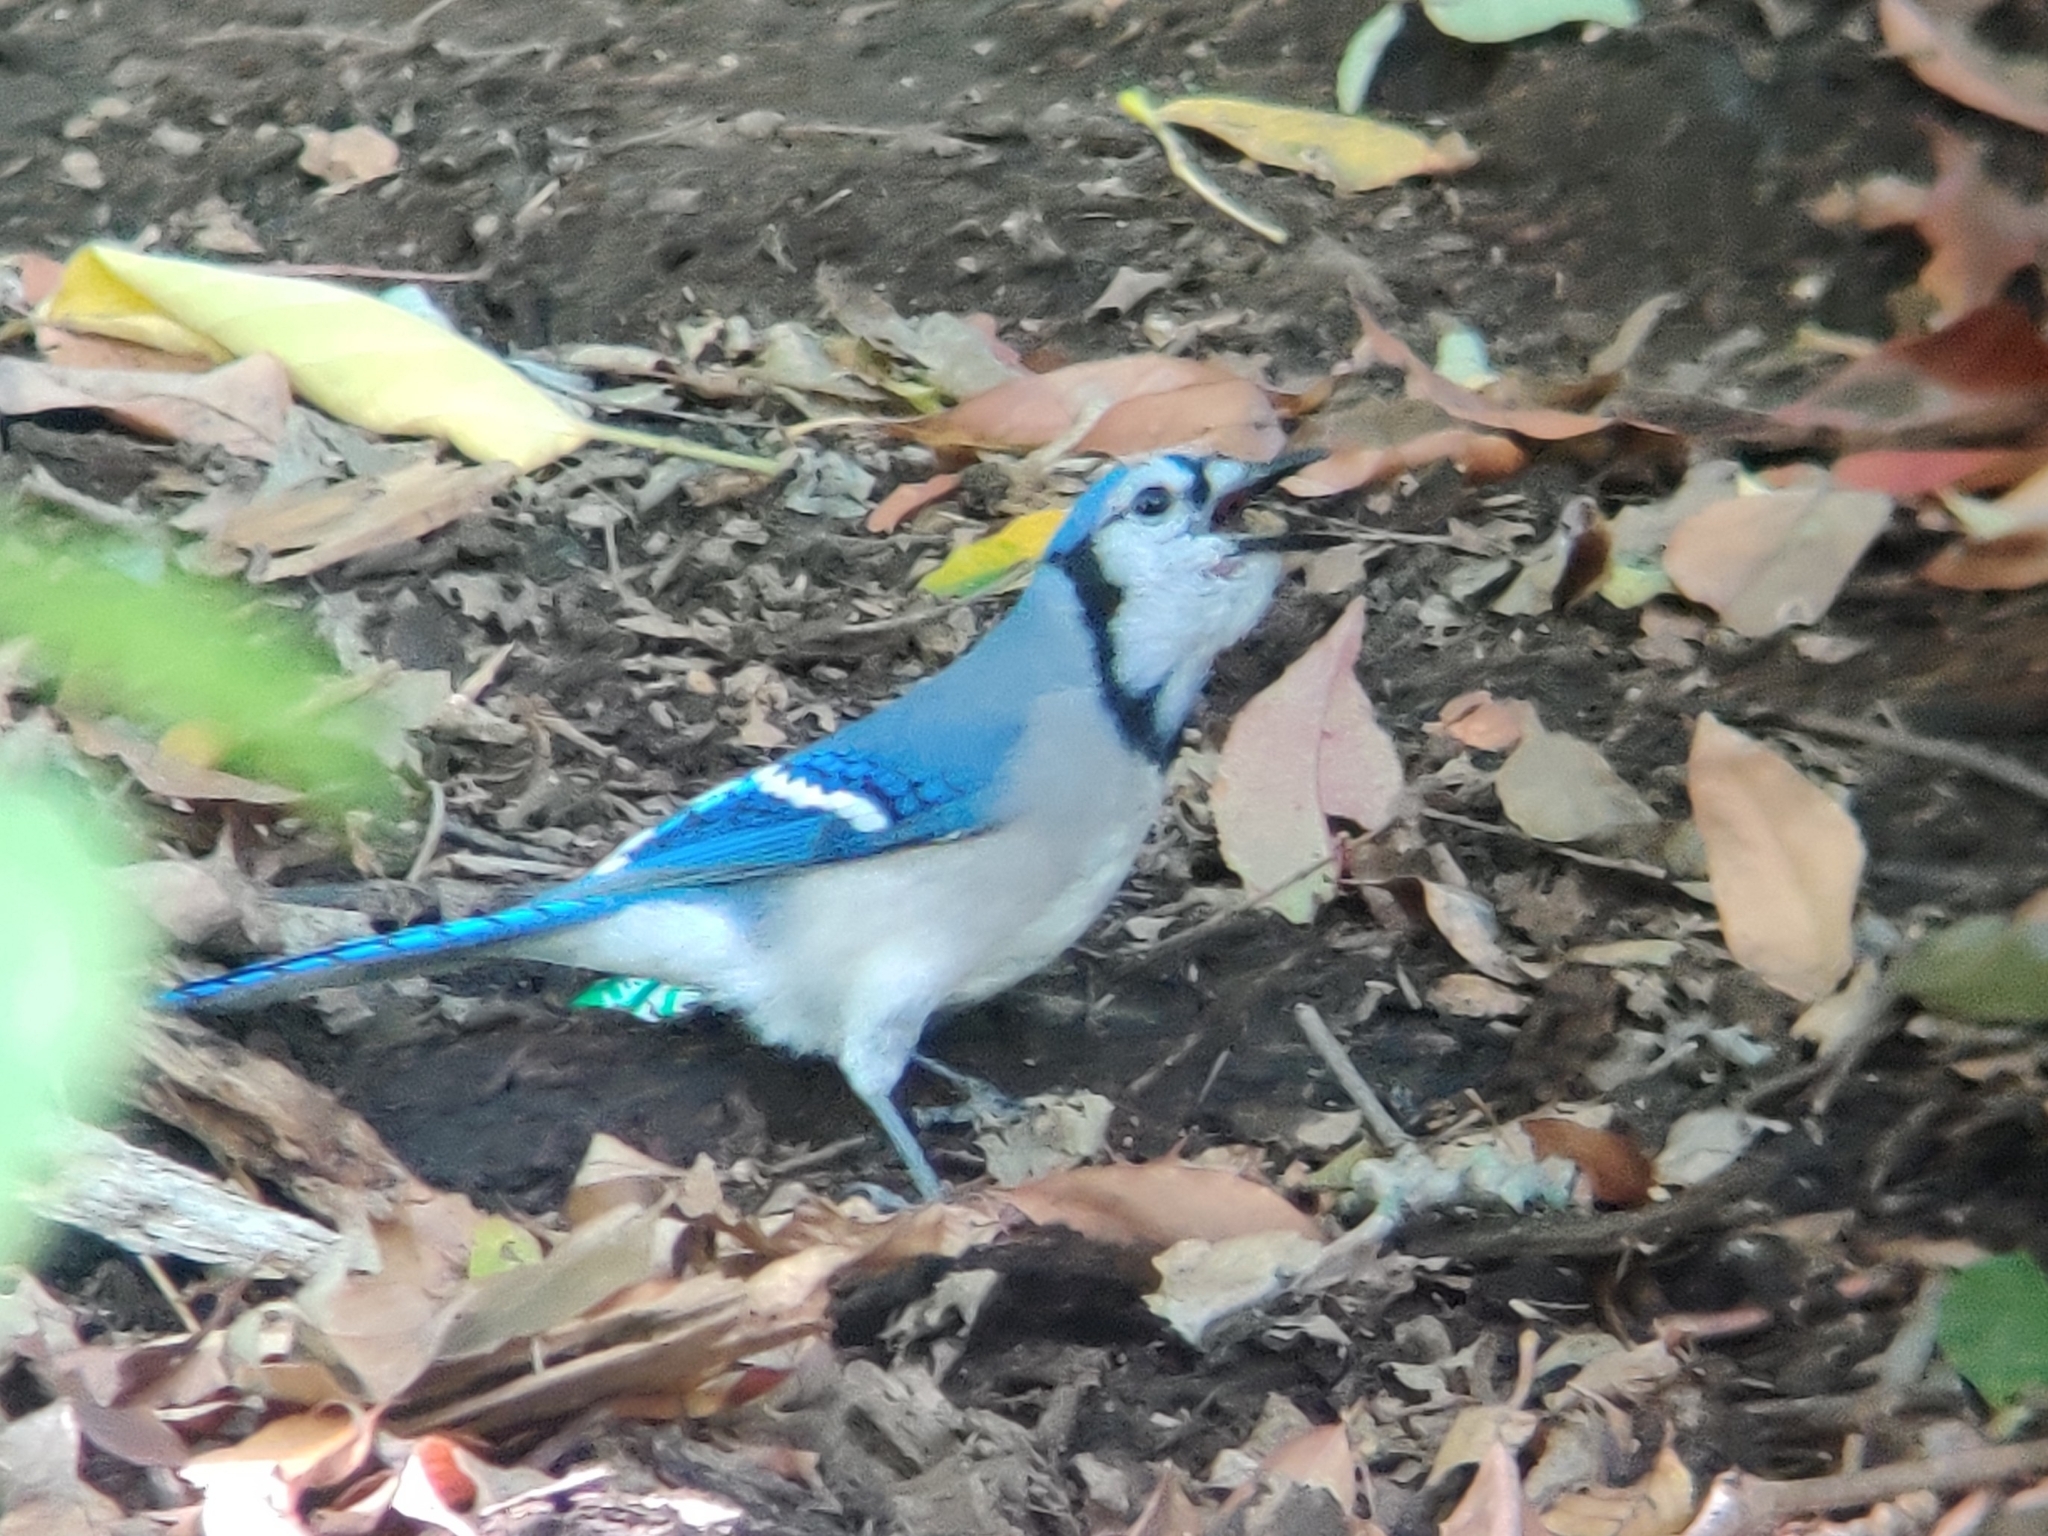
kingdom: Animalia
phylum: Chordata
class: Aves
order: Passeriformes
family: Corvidae
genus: Cyanocitta
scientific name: Cyanocitta cristata
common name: Blue jay
